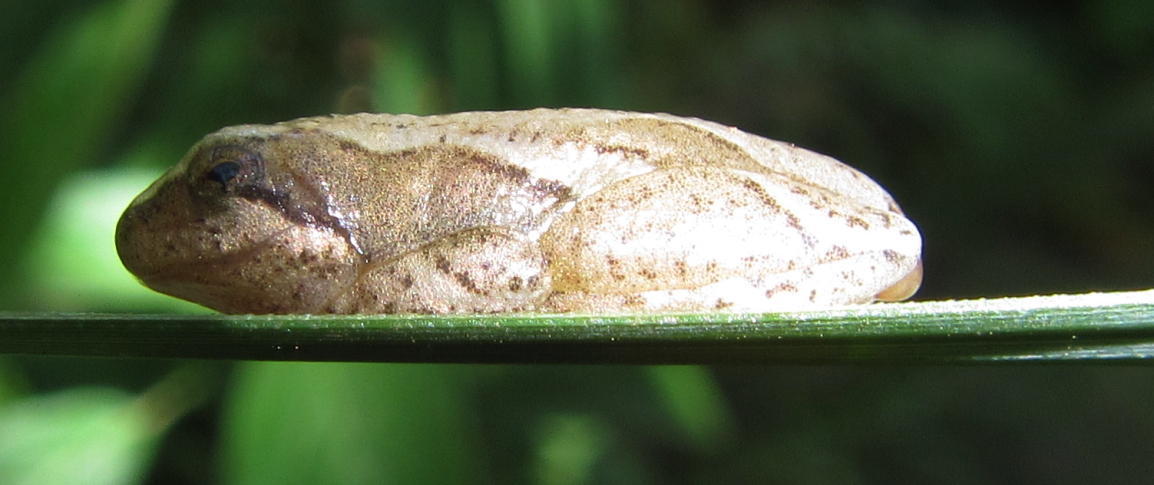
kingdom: Animalia
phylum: Chordata
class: Amphibia
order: Anura
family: Hyperoliidae
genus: Hyperolius
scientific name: Hyperolius marmoratus
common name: Painted reed frog
